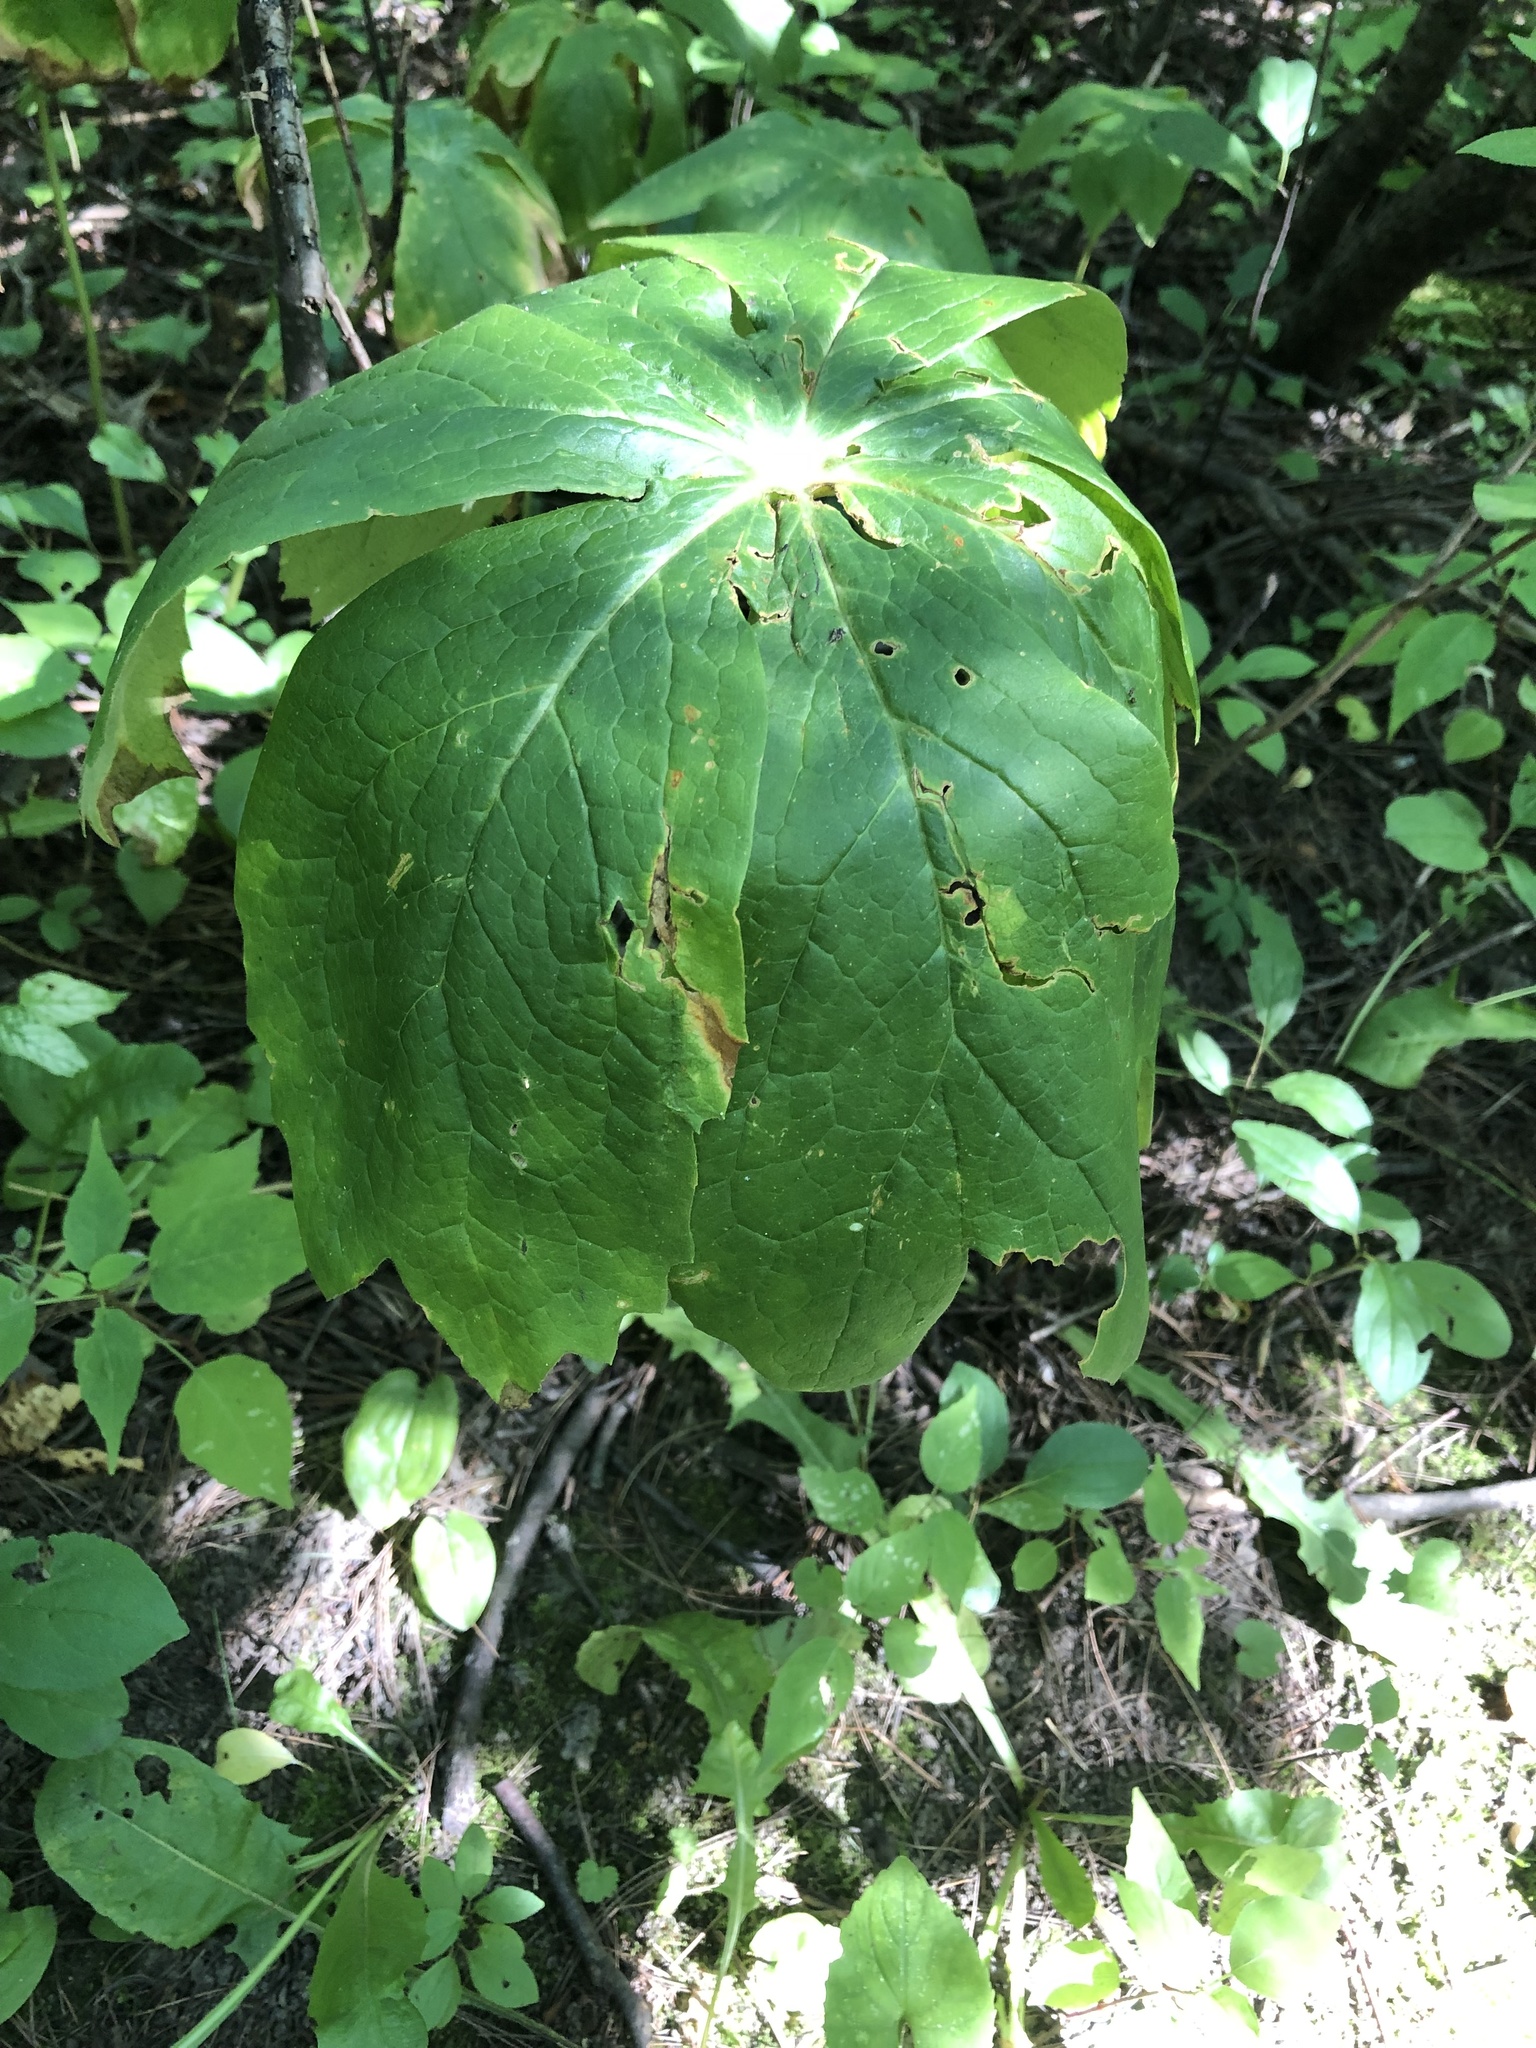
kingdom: Plantae
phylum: Tracheophyta
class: Magnoliopsida
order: Ranunculales
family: Berberidaceae
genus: Podophyllum
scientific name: Podophyllum peltatum
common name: Wild mandrake
